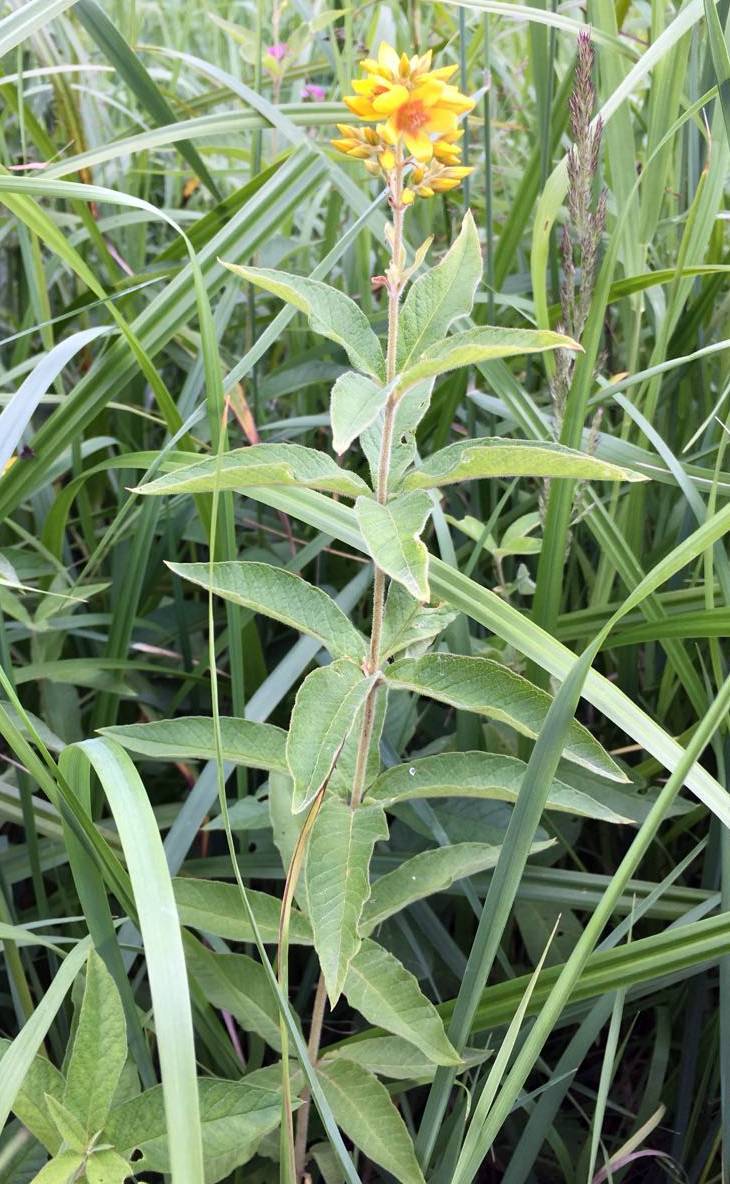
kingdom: Plantae
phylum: Tracheophyta
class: Magnoliopsida
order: Ericales
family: Primulaceae
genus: Lysimachia
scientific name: Lysimachia vulgaris
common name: Yellow loosestrife
